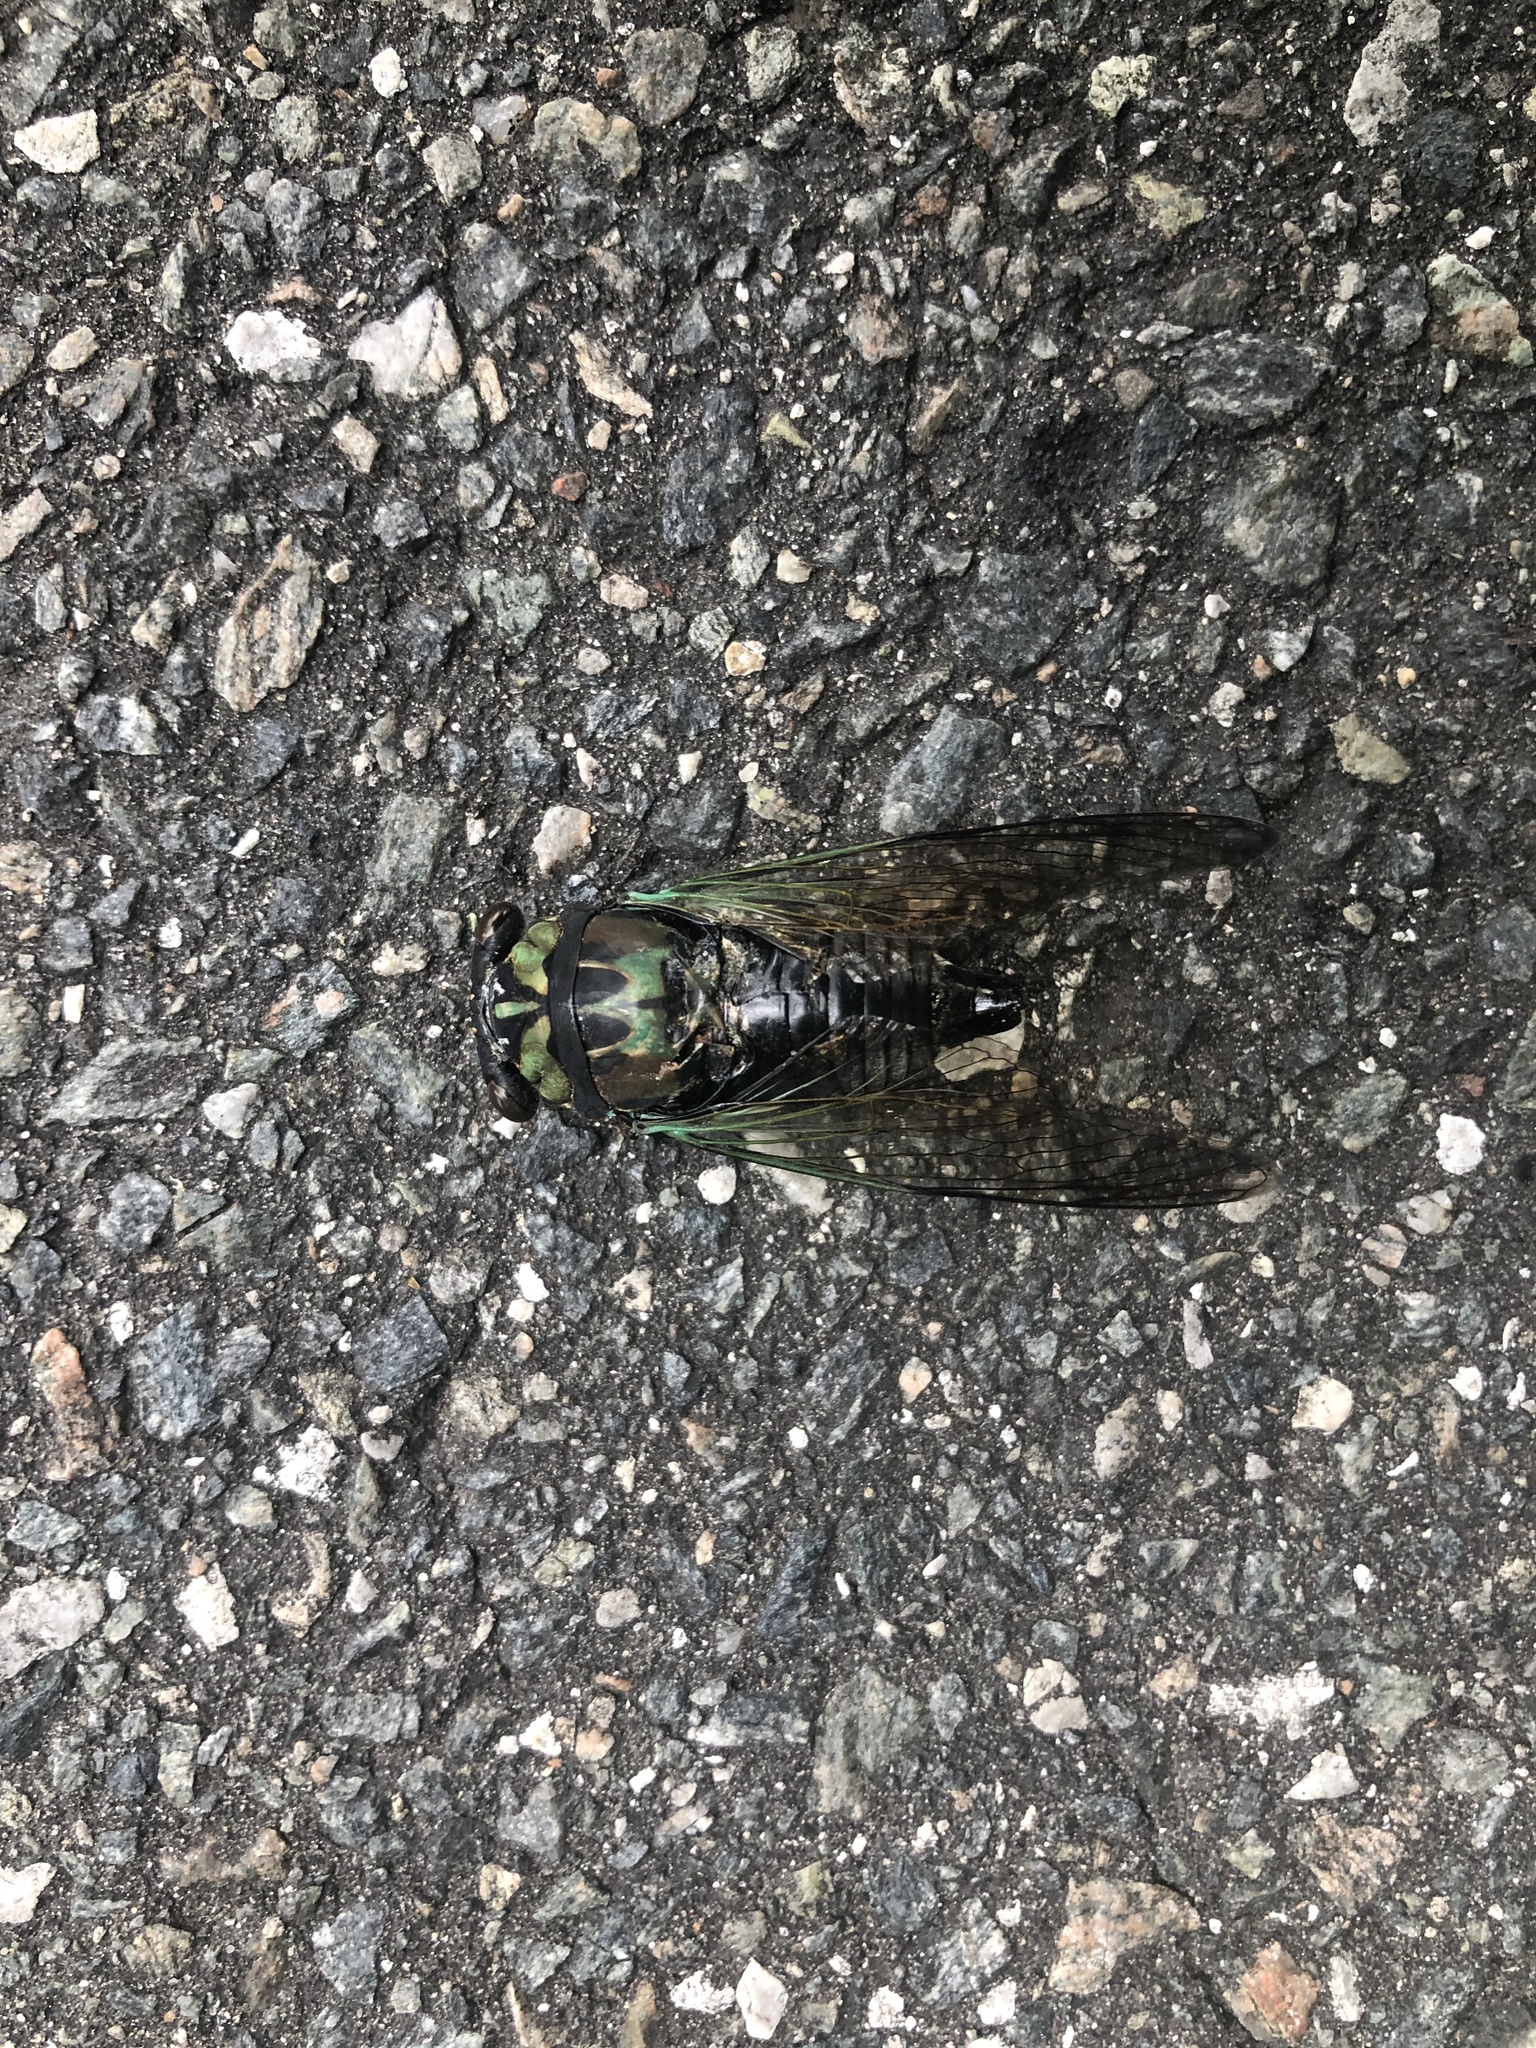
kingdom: Animalia
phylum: Arthropoda
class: Insecta
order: Hemiptera
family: Cicadidae
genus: Neotibicen
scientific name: Neotibicen lyricen
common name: Lyric cicada
